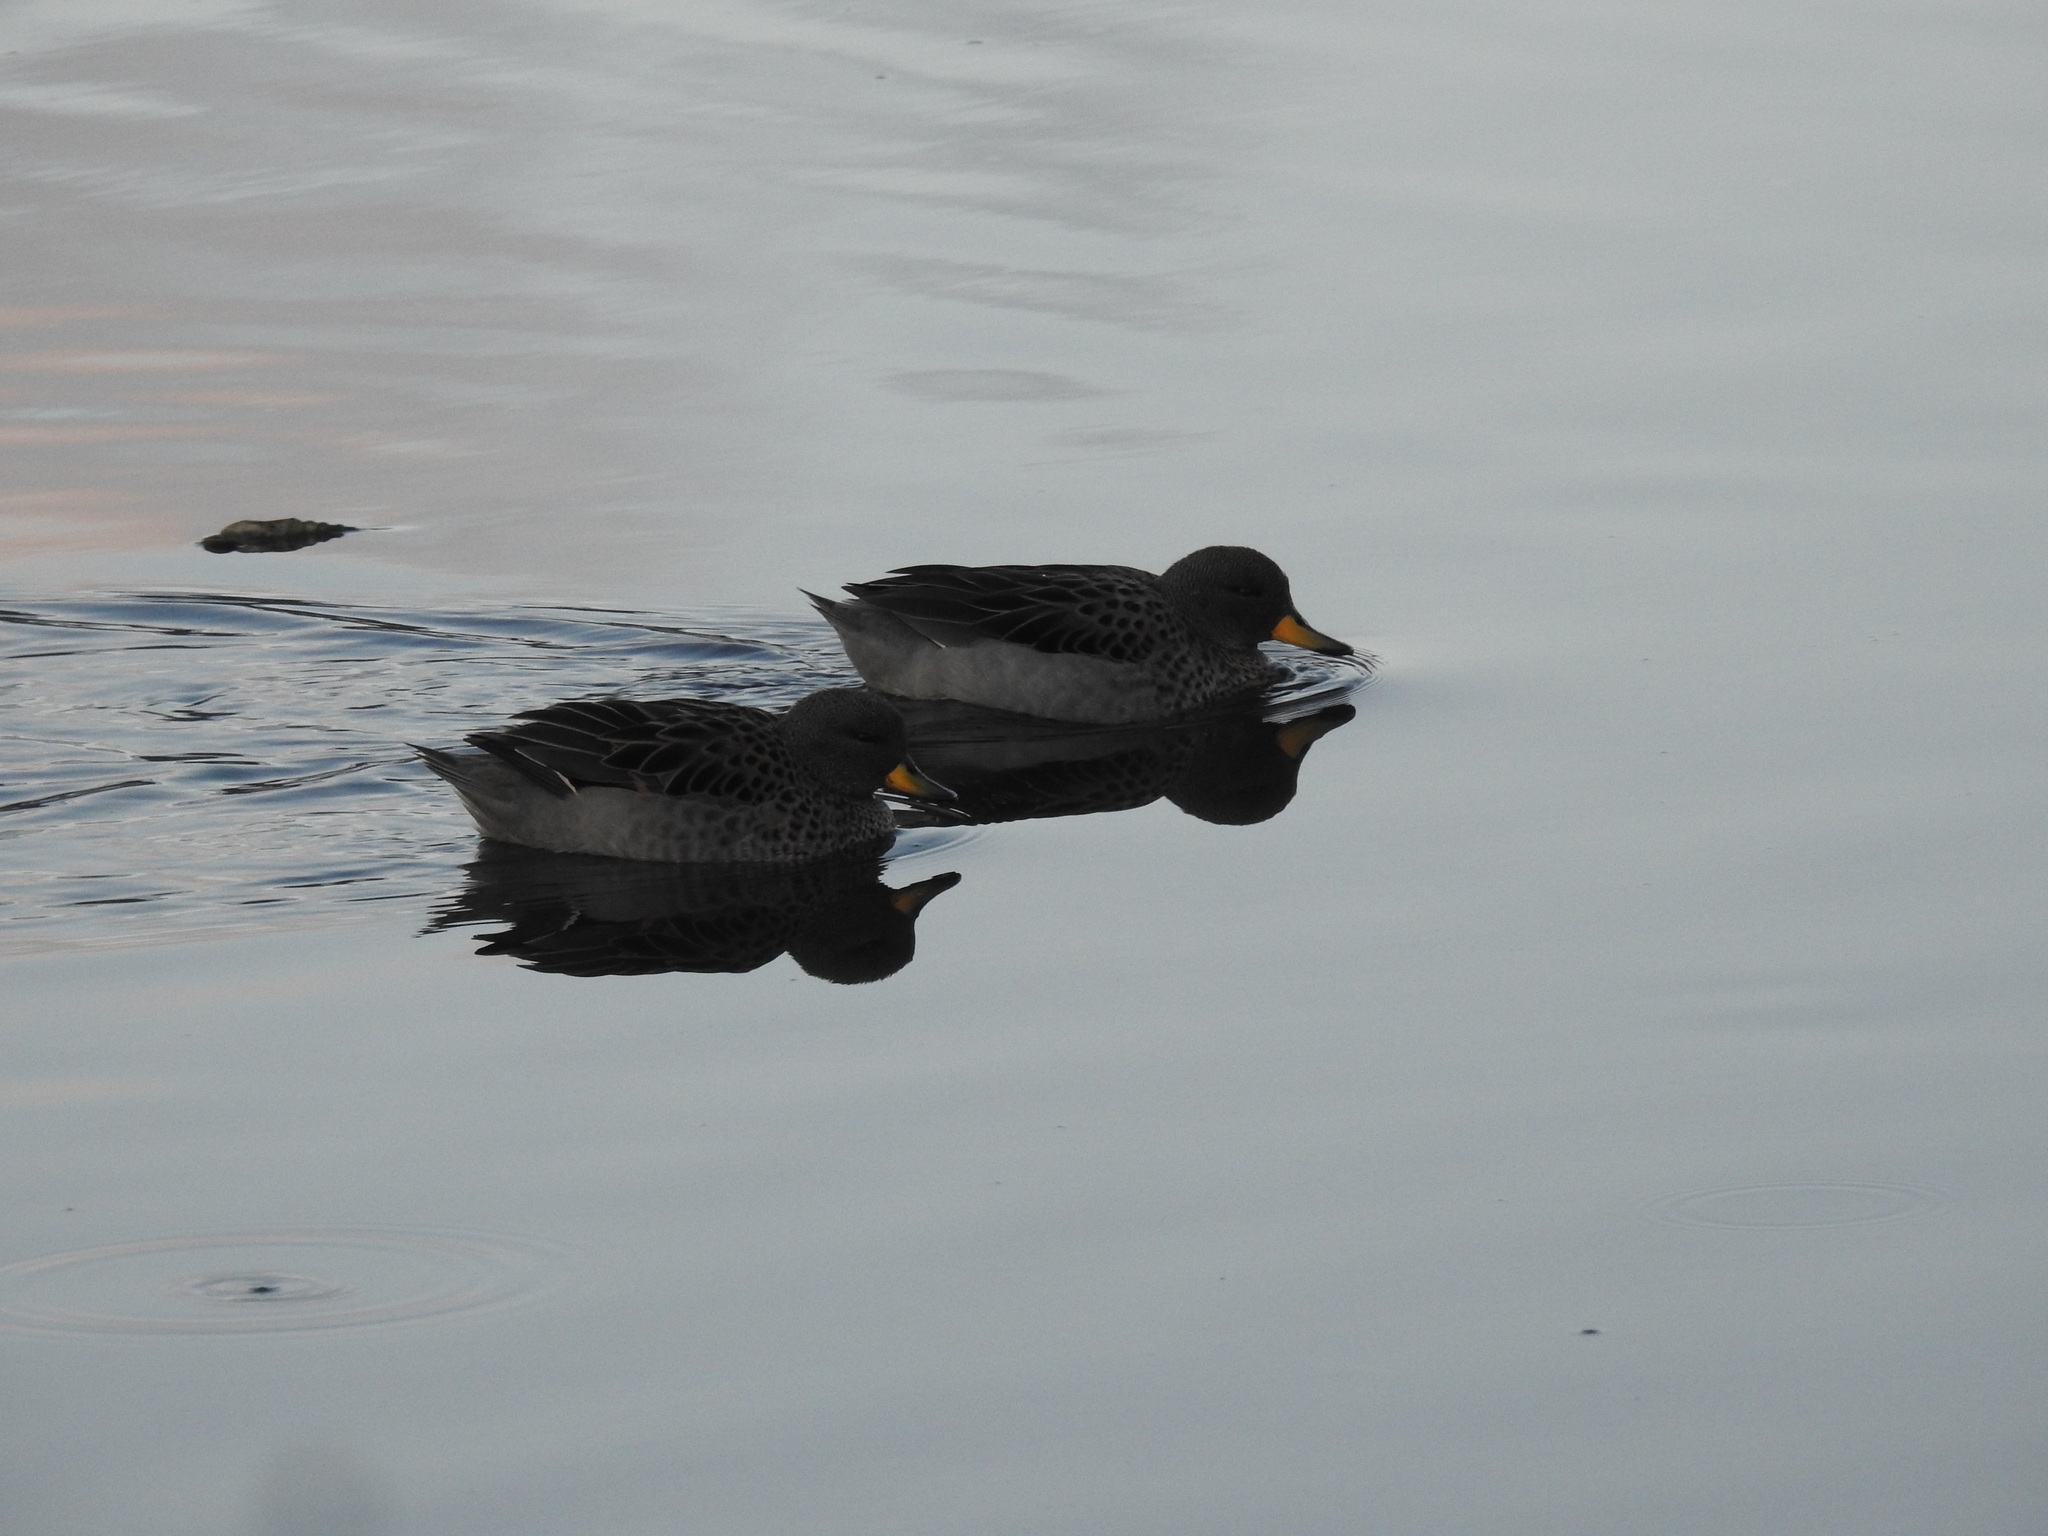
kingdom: Animalia
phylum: Chordata
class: Aves
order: Anseriformes
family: Anatidae
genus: Anas
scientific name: Anas flavirostris
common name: Yellow-billed teal
